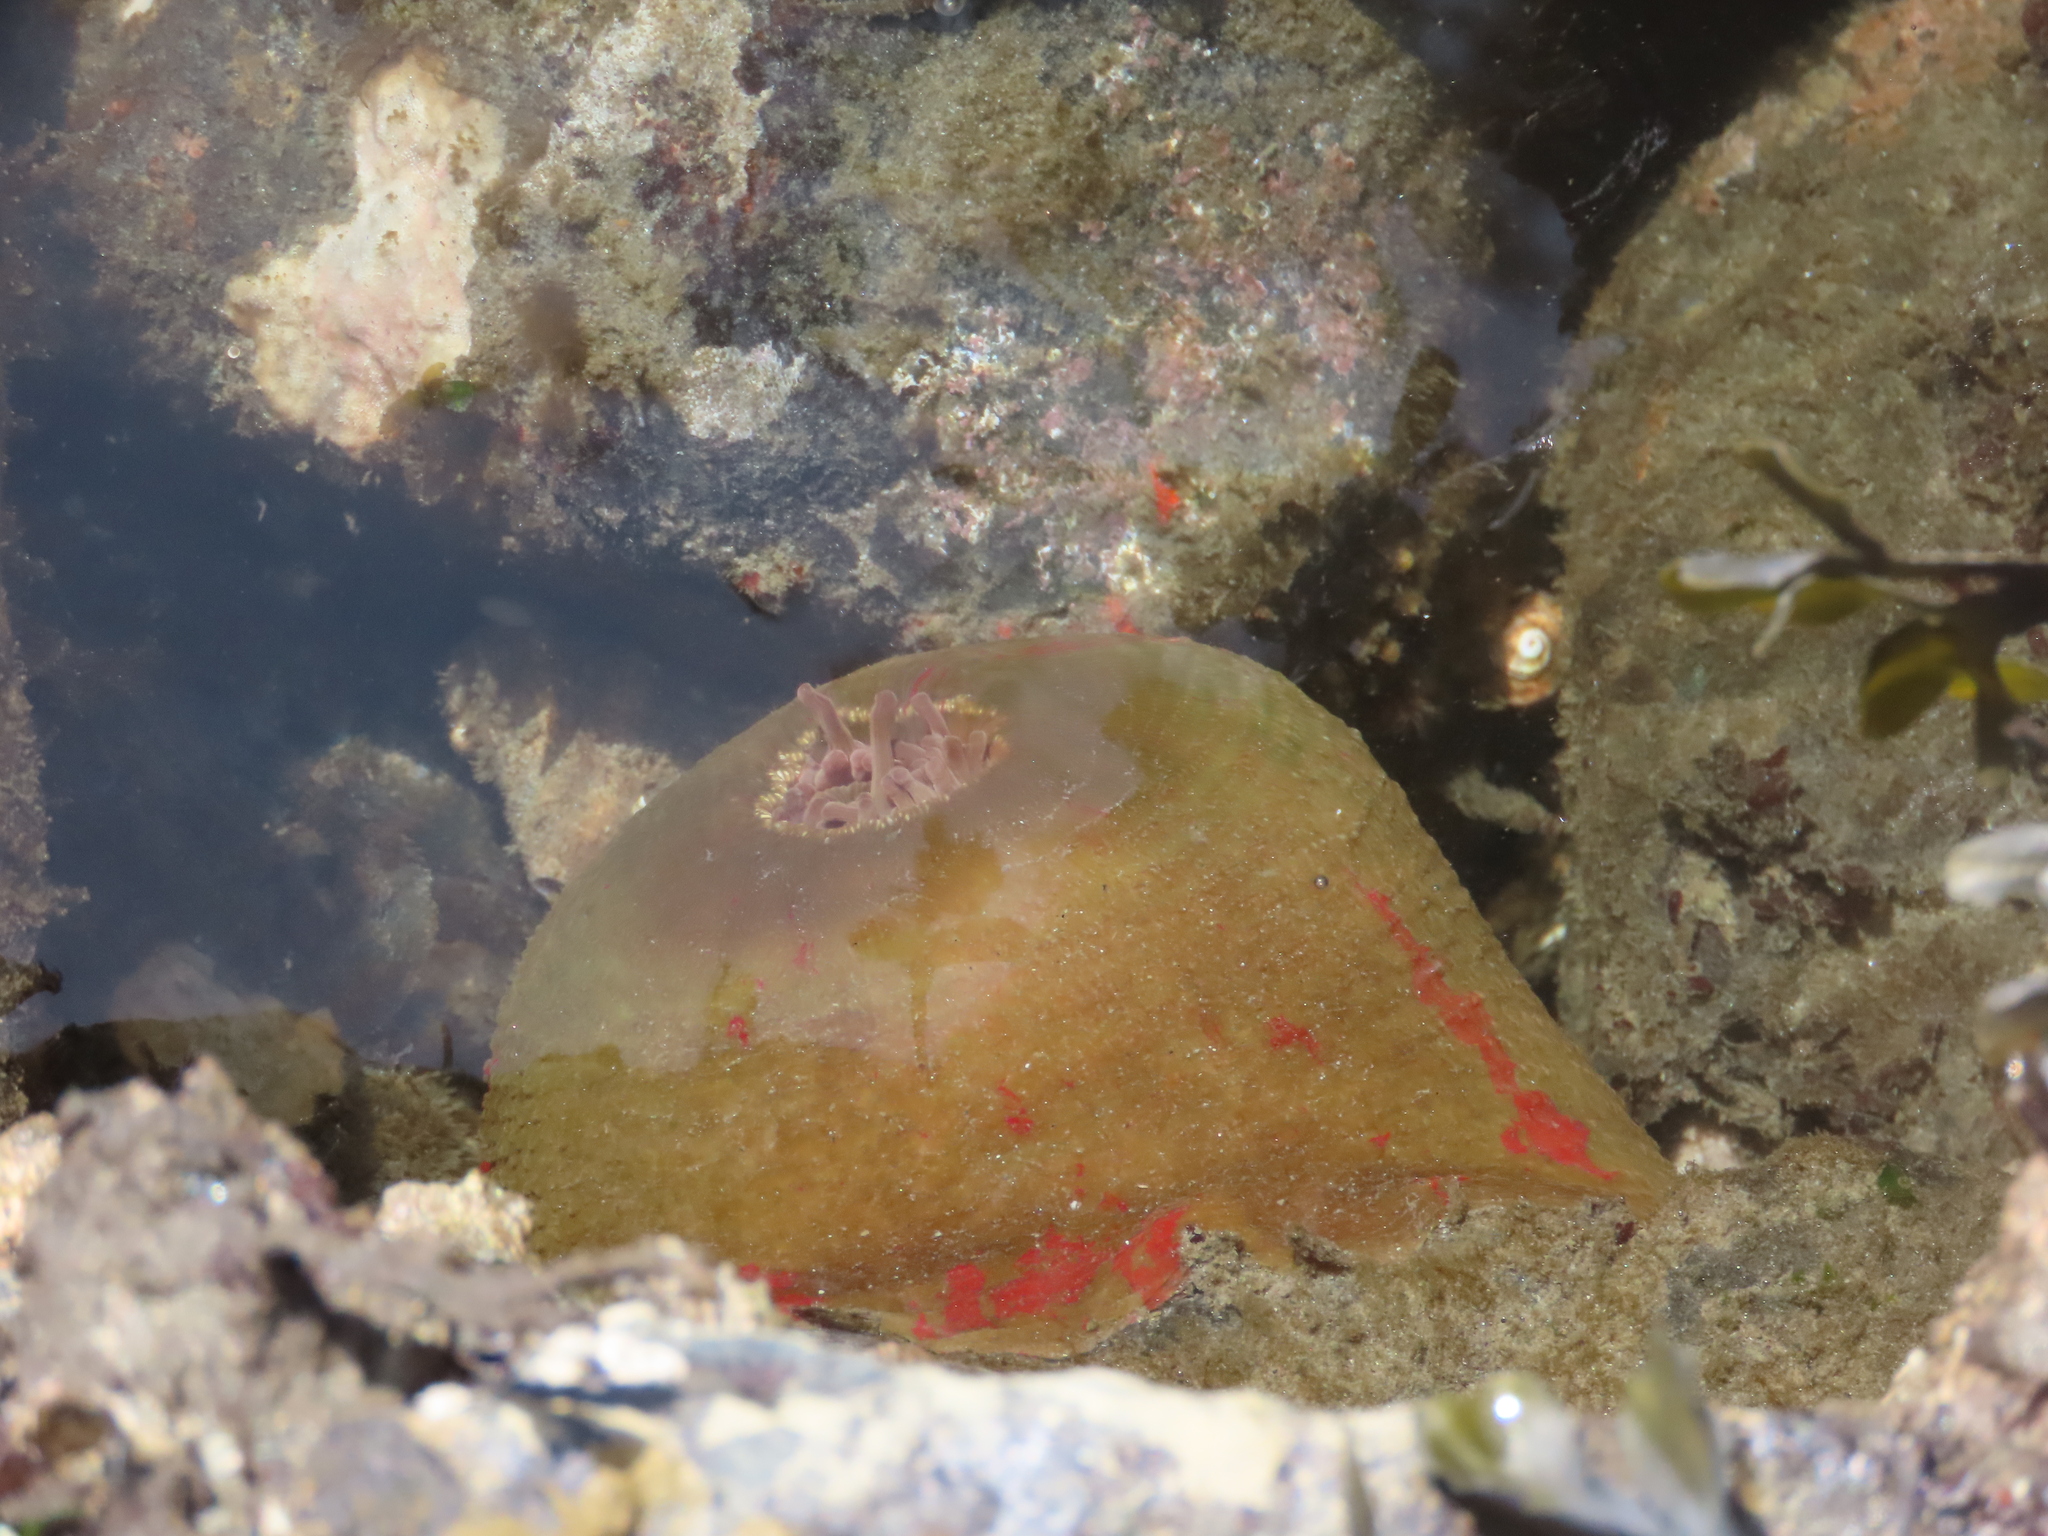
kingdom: Animalia
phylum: Cnidaria
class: Anthozoa
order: Actiniaria
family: Actiniidae
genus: Urticina
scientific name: Urticina grebelnyi
